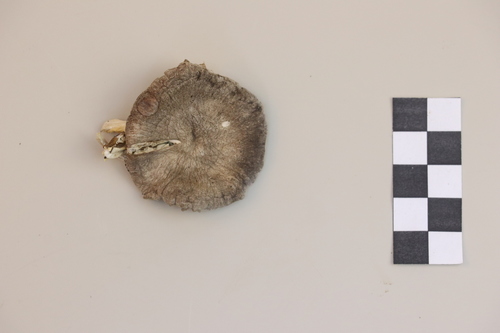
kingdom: Fungi
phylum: Basidiomycota
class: Agaricomycetes
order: Agaricales
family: Tricholomataceae
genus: Tricholoma
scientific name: Tricholoma terreum
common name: Grey knight
